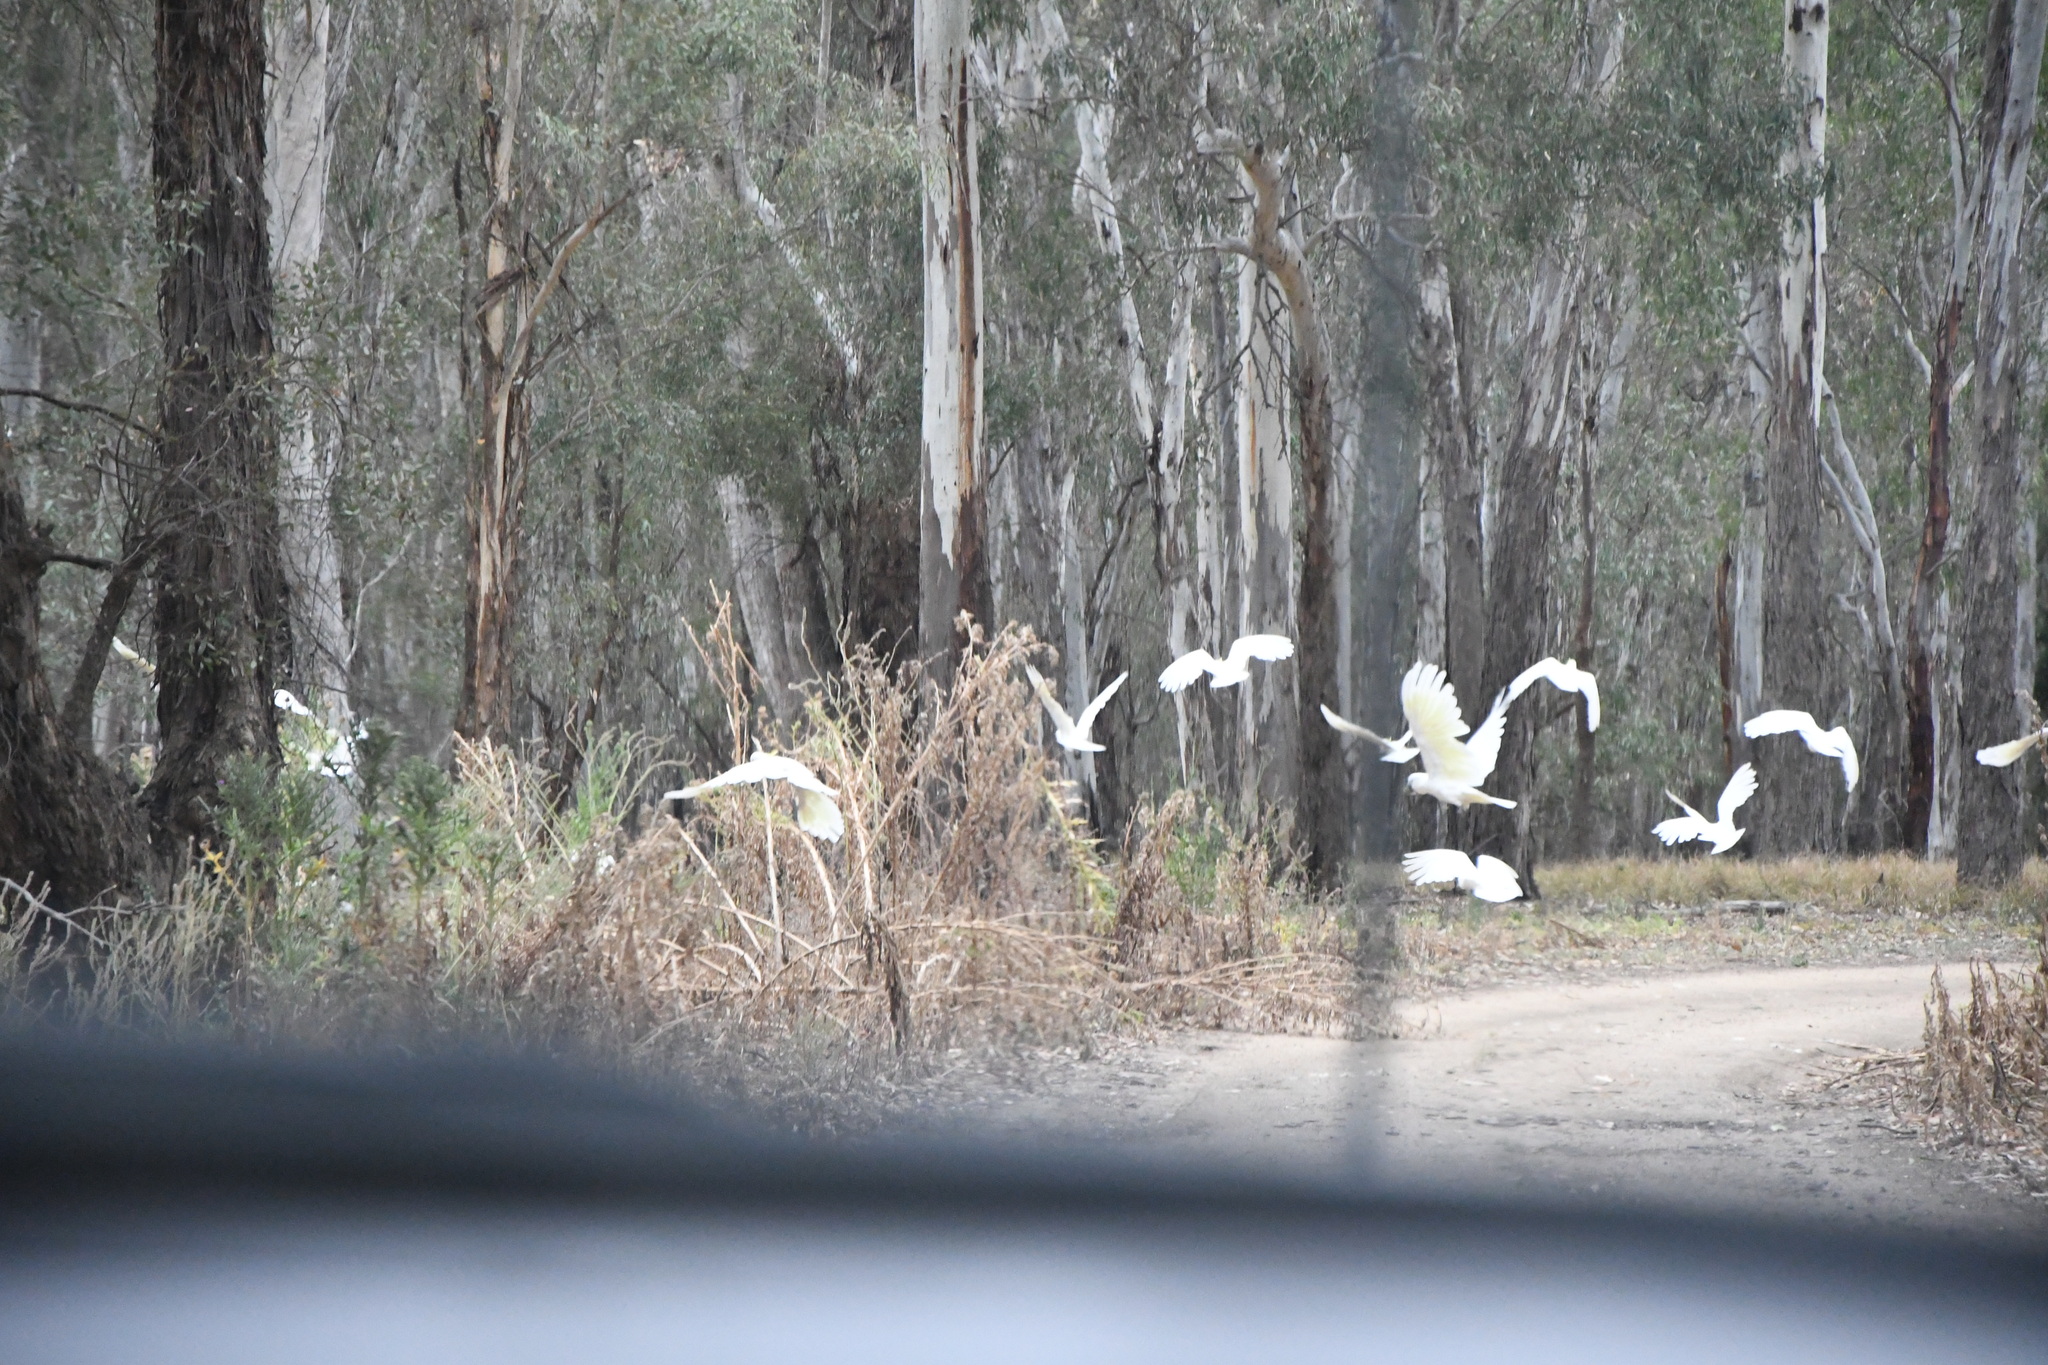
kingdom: Animalia
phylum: Chordata
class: Aves
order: Psittaciformes
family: Psittacidae
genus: Cacatua
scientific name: Cacatua galerita
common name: Sulphur-crested cockatoo
